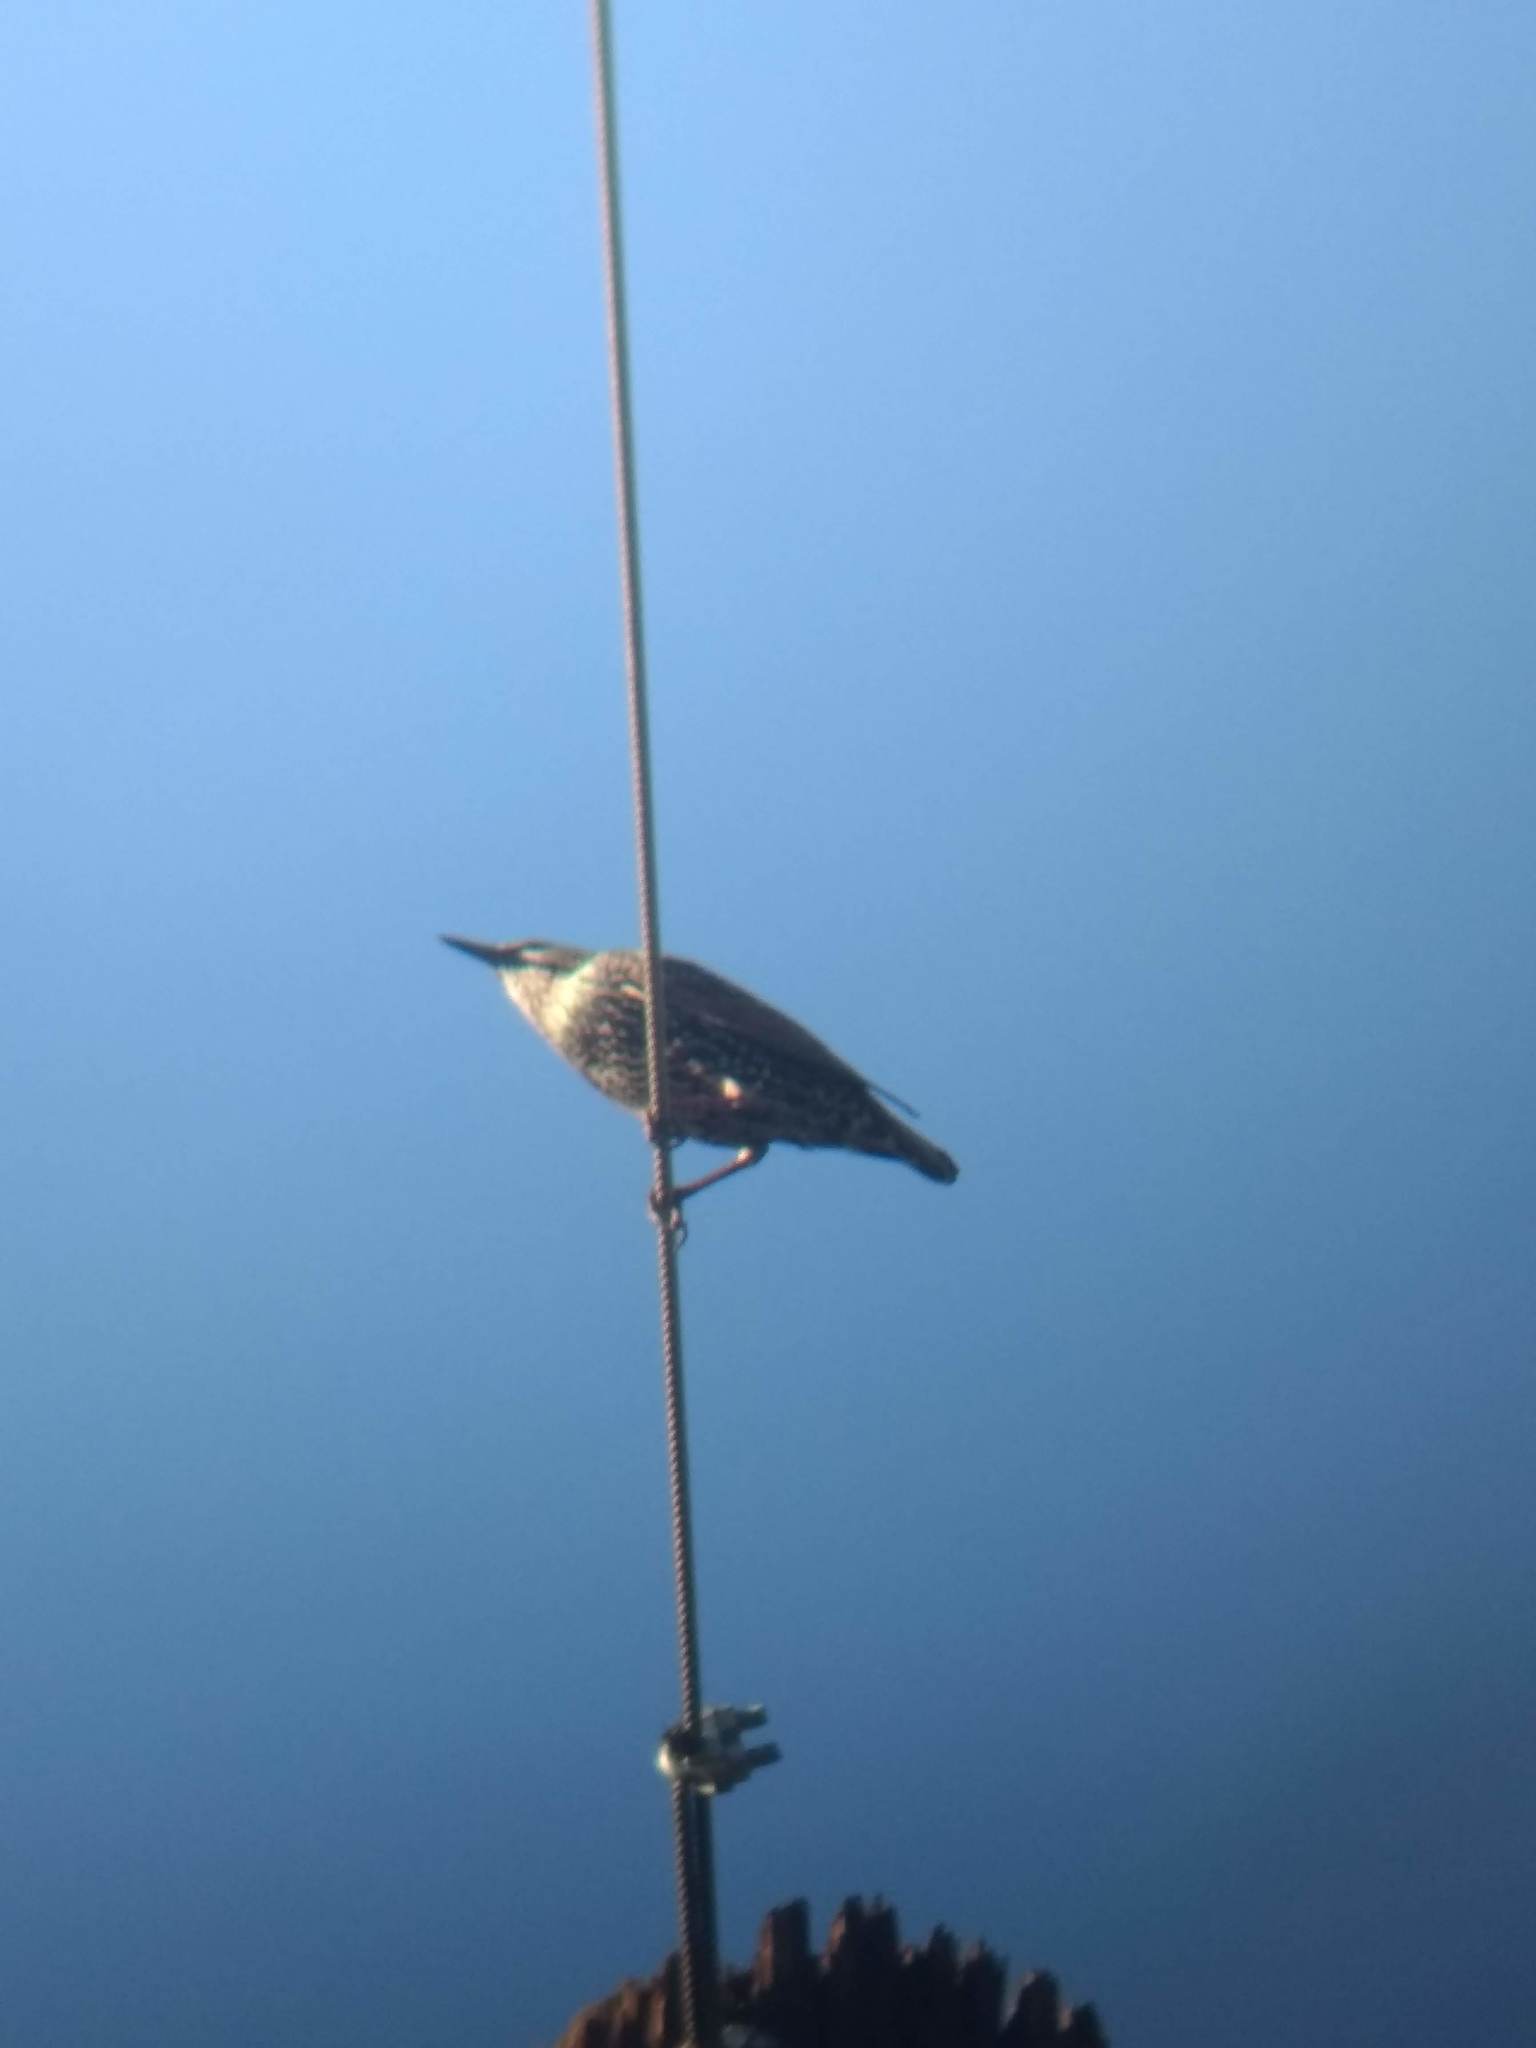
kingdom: Animalia
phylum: Chordata
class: Aves
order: Passeriformes
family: Sturnidae
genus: Sturnus
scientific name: Sturnus vulgaris
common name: Common starling
